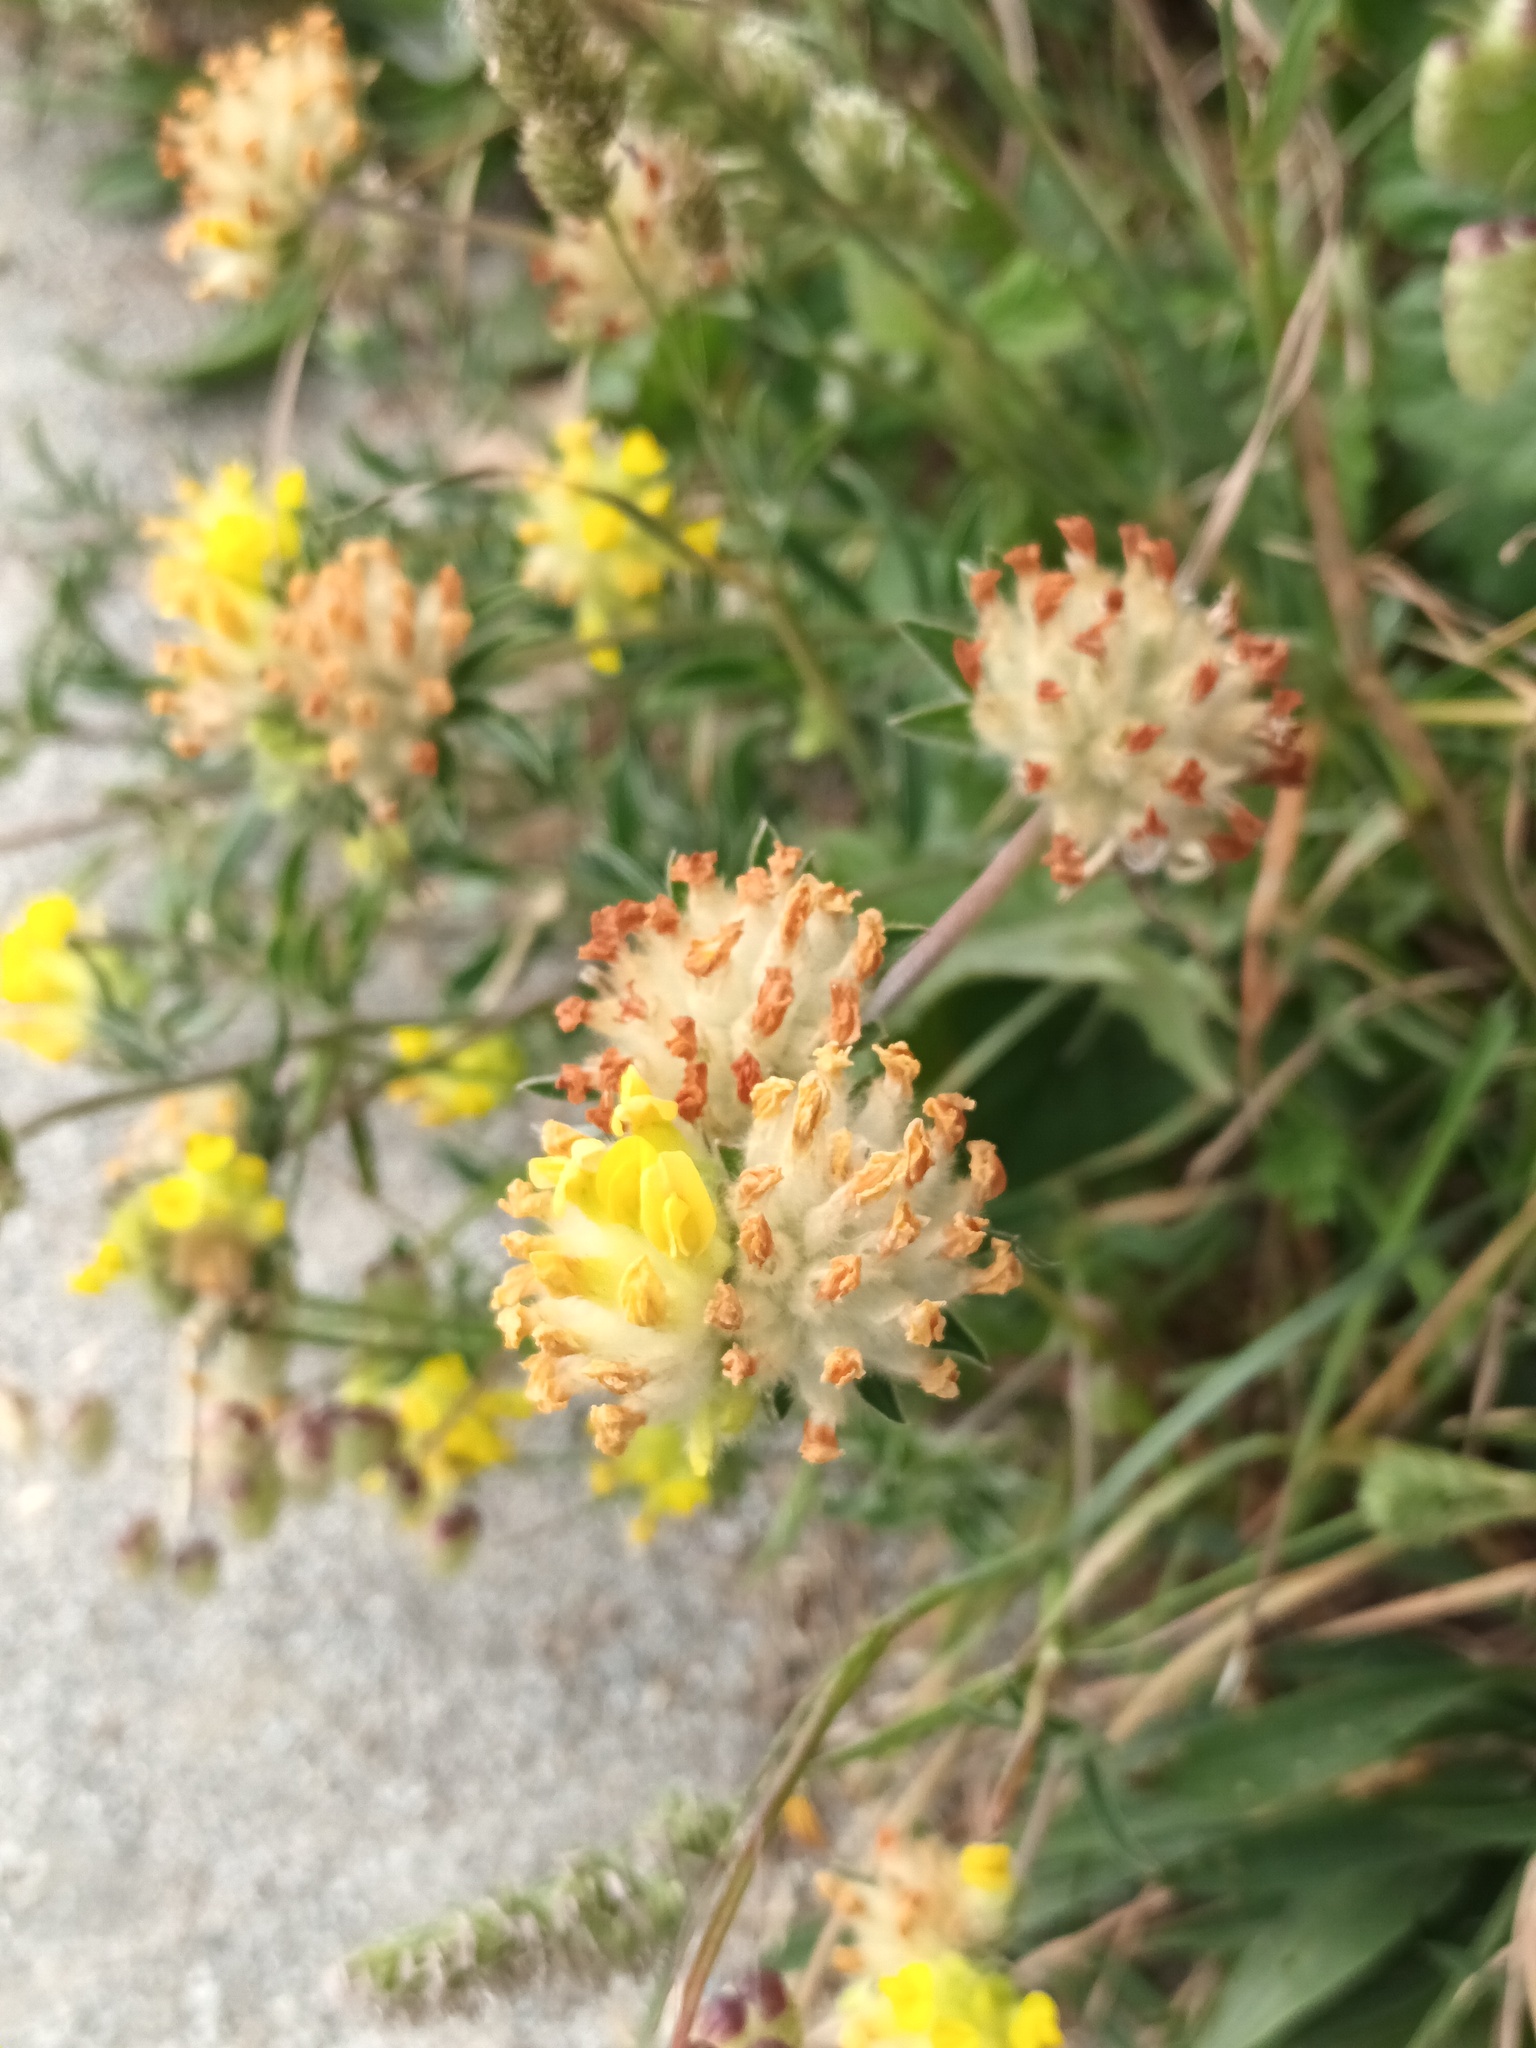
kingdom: Plantae
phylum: Tracheophyta
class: Magnoliopsida
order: Fabales
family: Fabaceae
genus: Anthyllis
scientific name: Anthyllis vulneraria
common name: Kidney vetch
